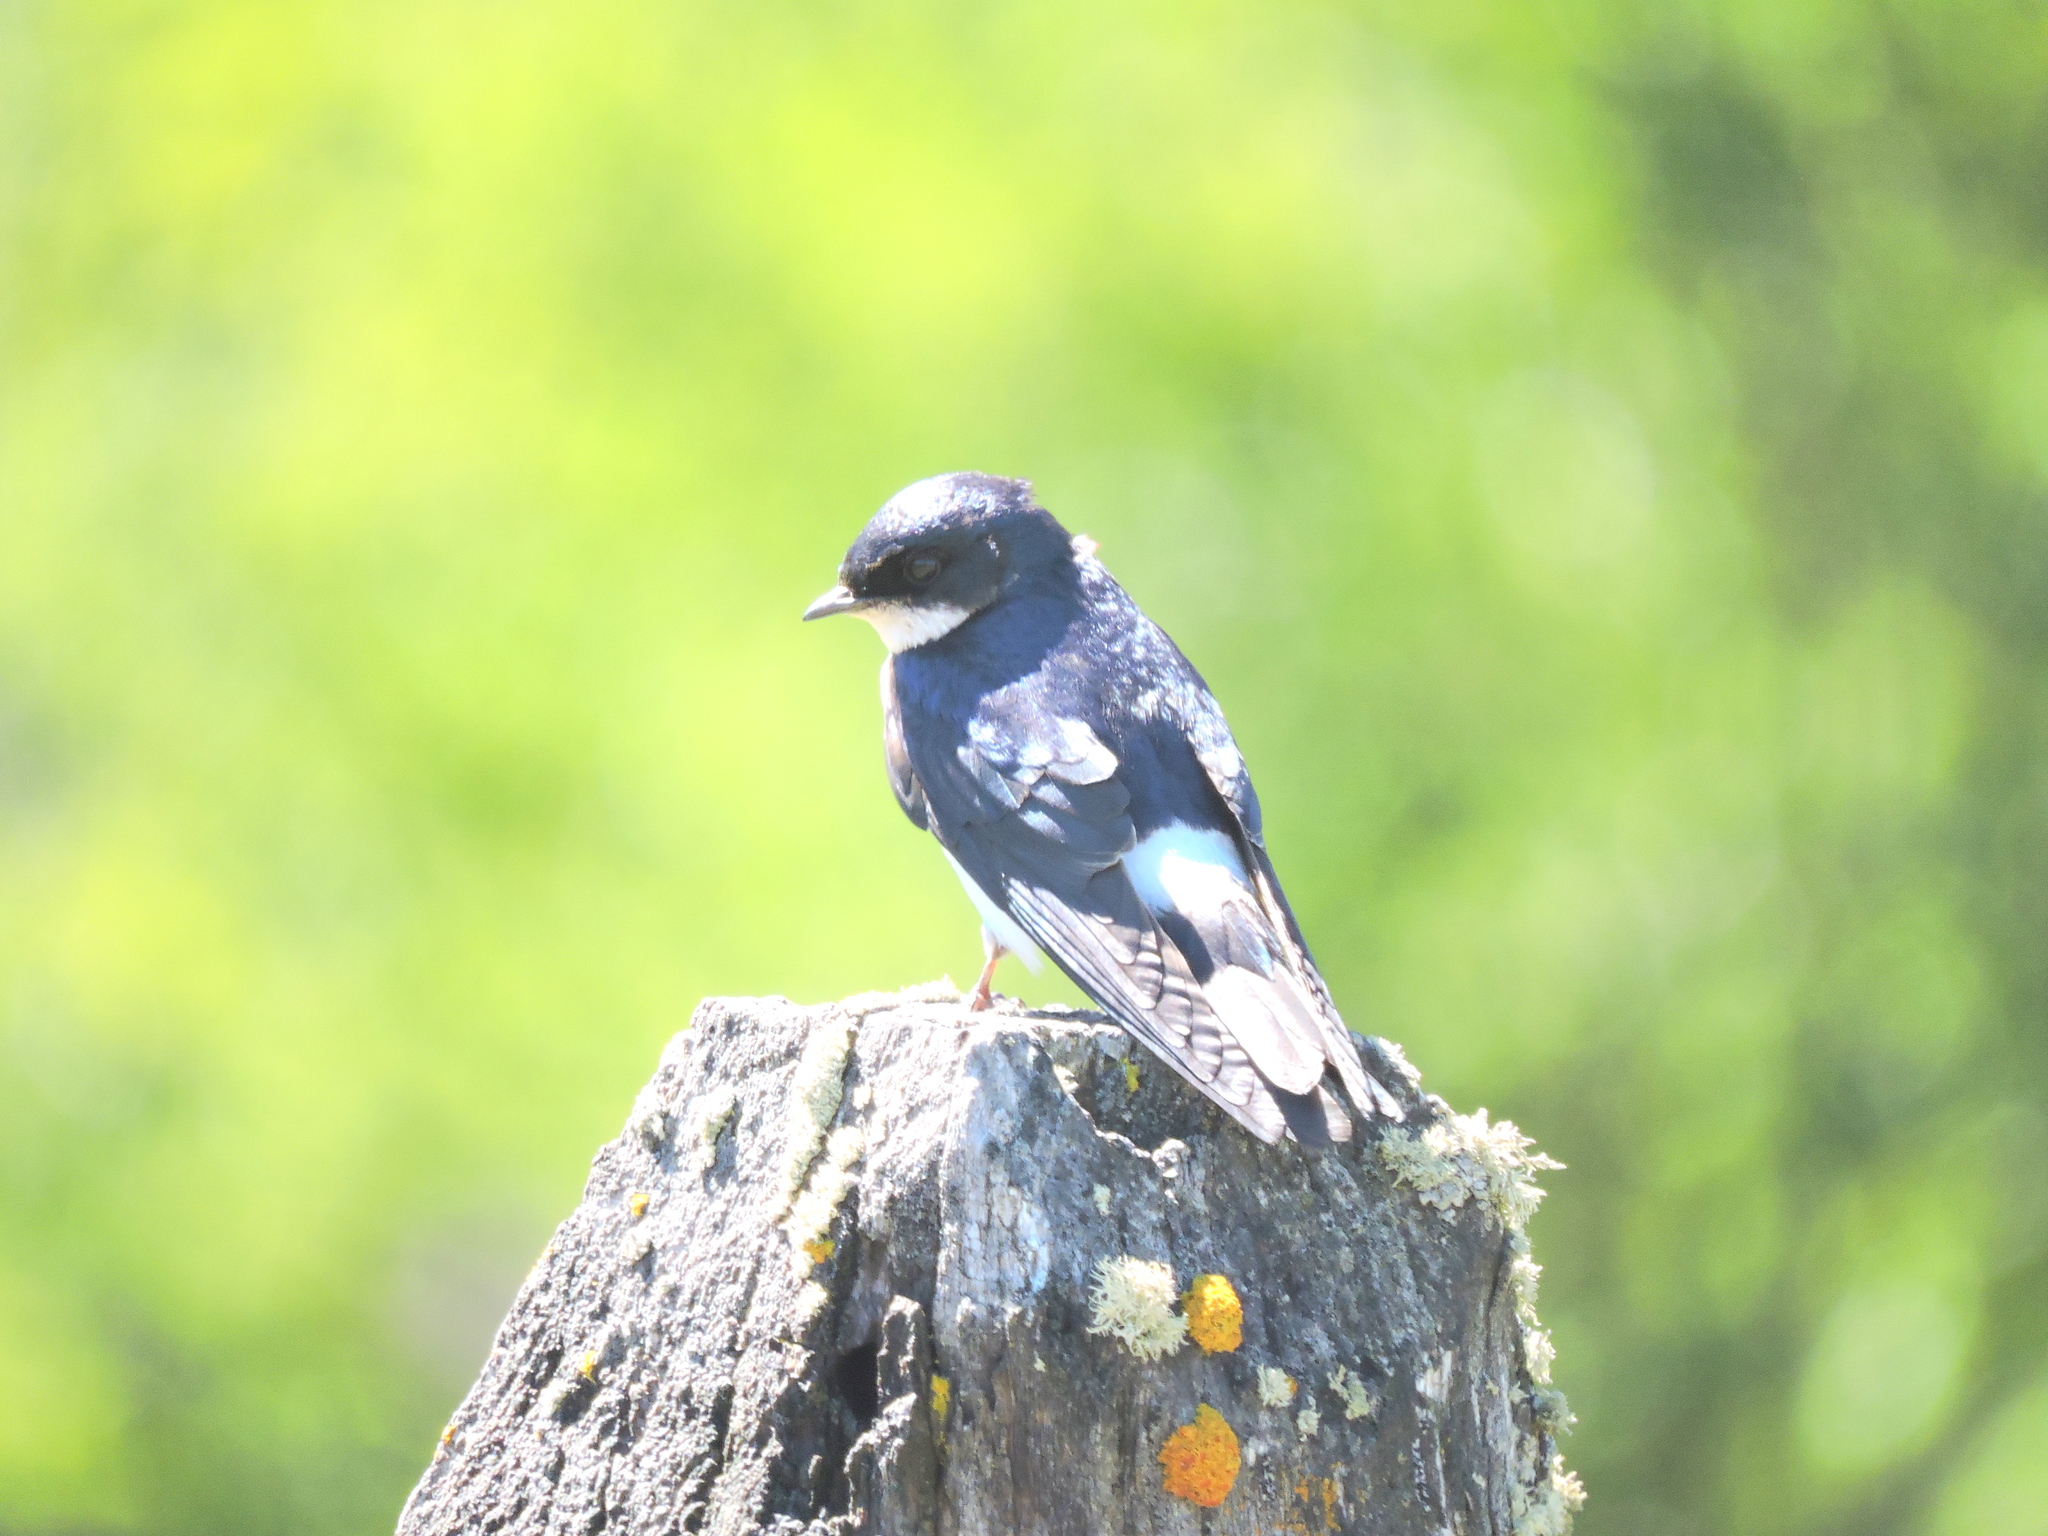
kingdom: Animalia
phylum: Chordata
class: Aves
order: Passeriformes
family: Hirundinidae
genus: Tachycineta
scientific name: Tachycineta leucopyga
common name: Chilean swallow
